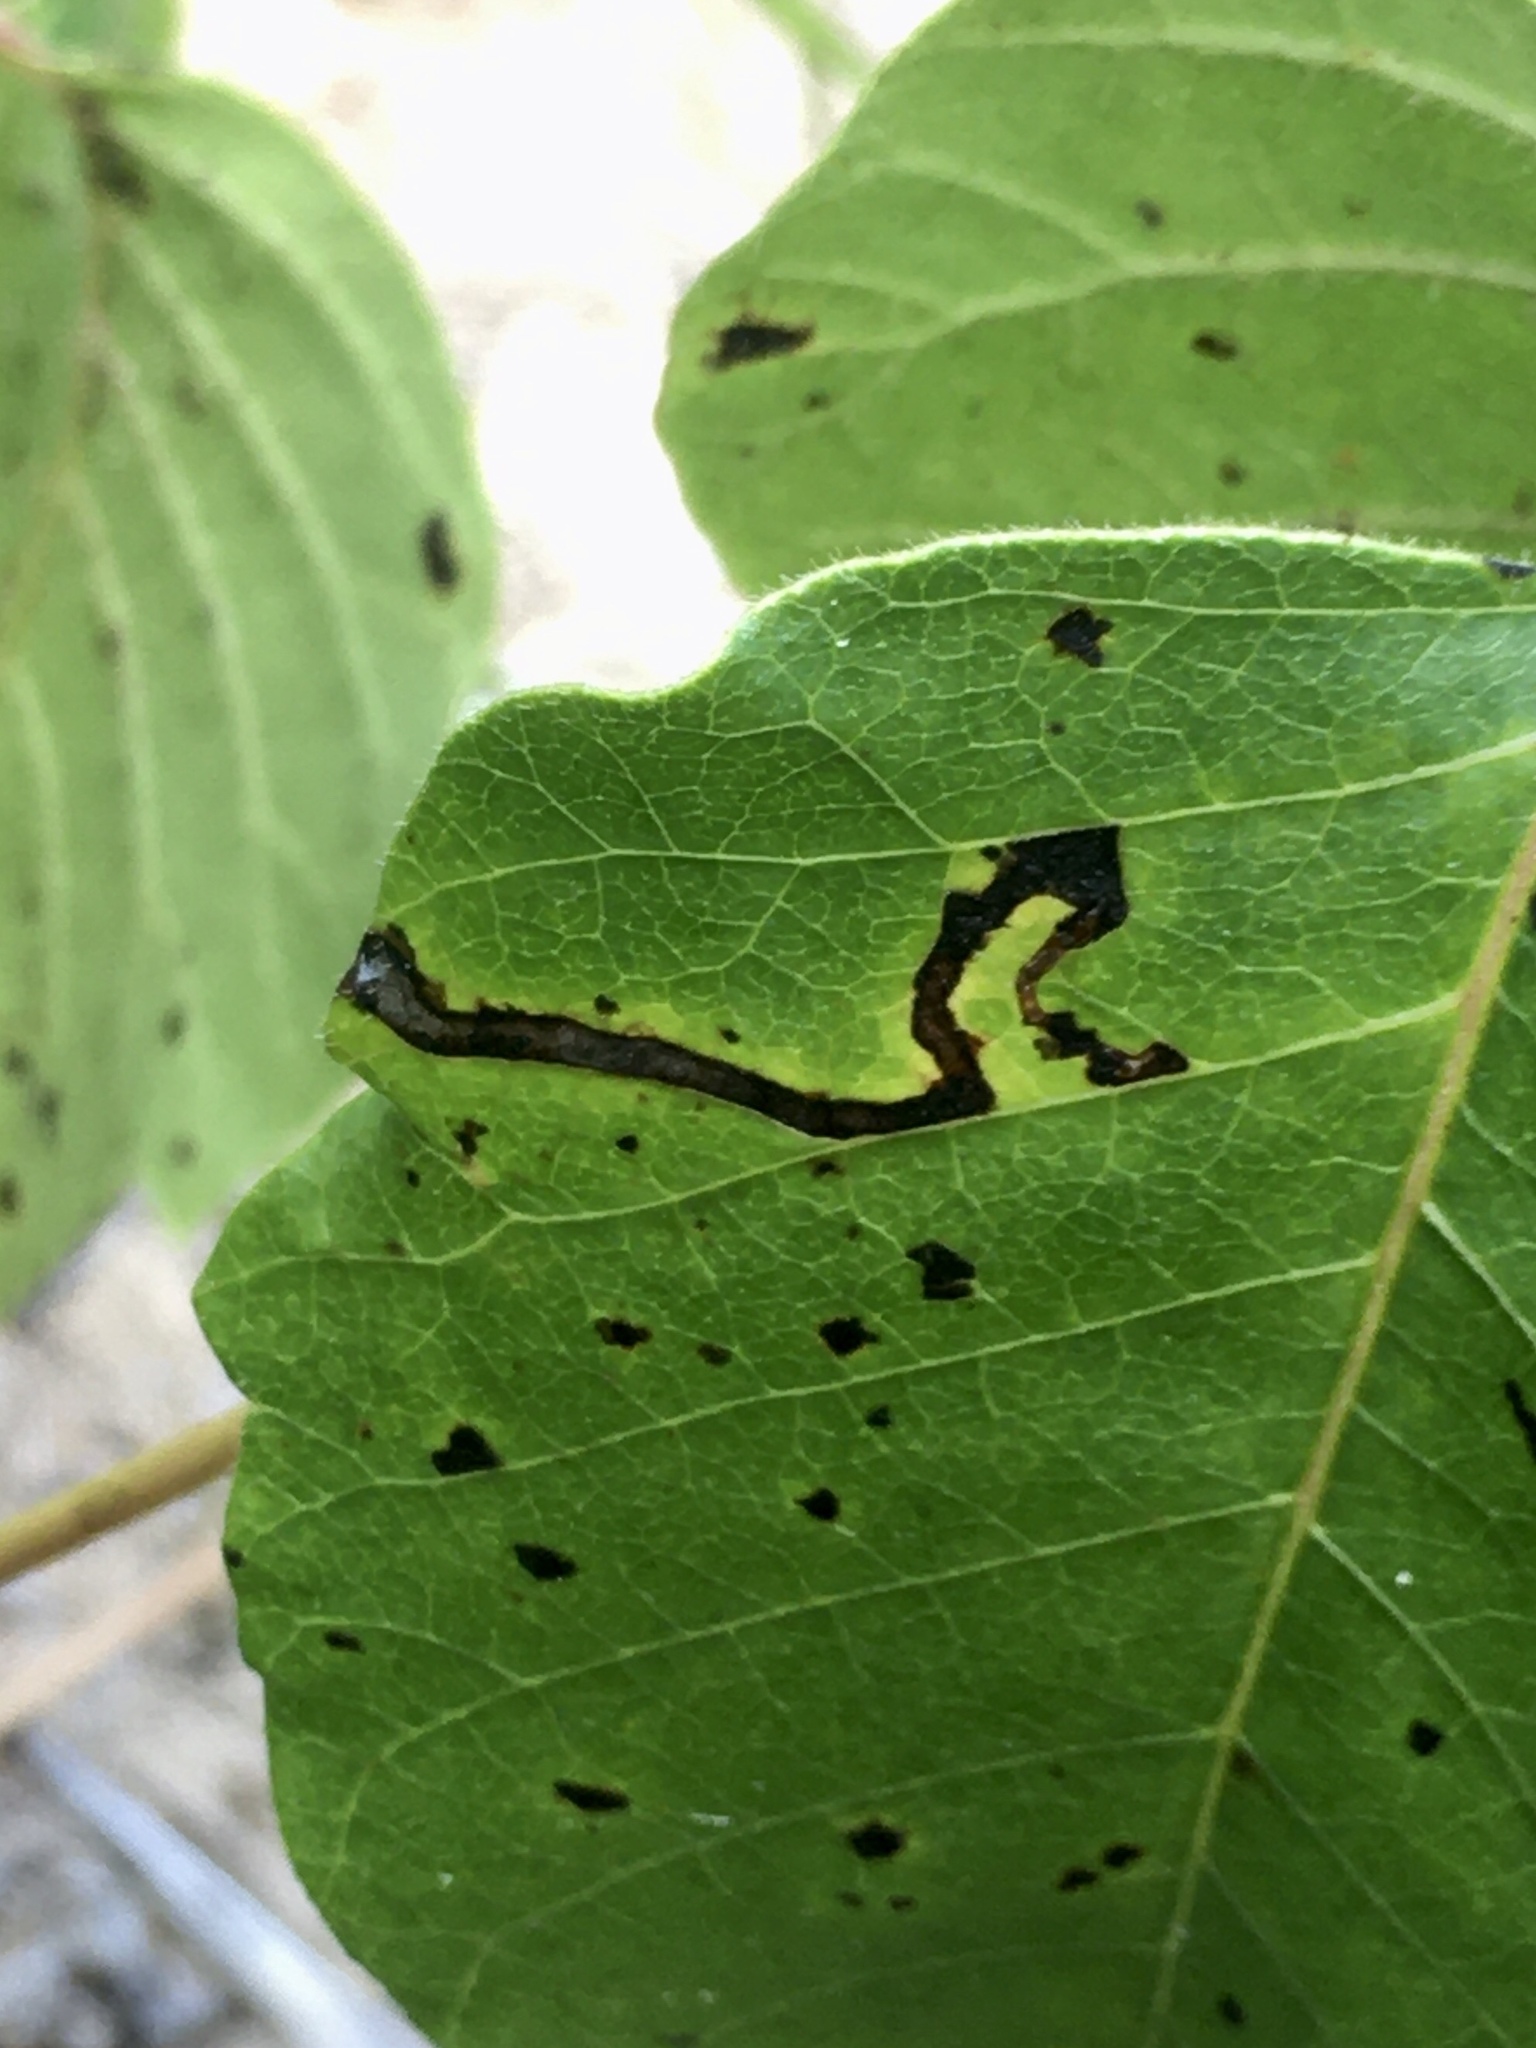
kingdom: Animalia
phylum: Arthropoda
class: Insecta
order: Lepidoptera
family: Nepticulidae
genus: Stigmella
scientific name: Stigmella rhoifoliella
